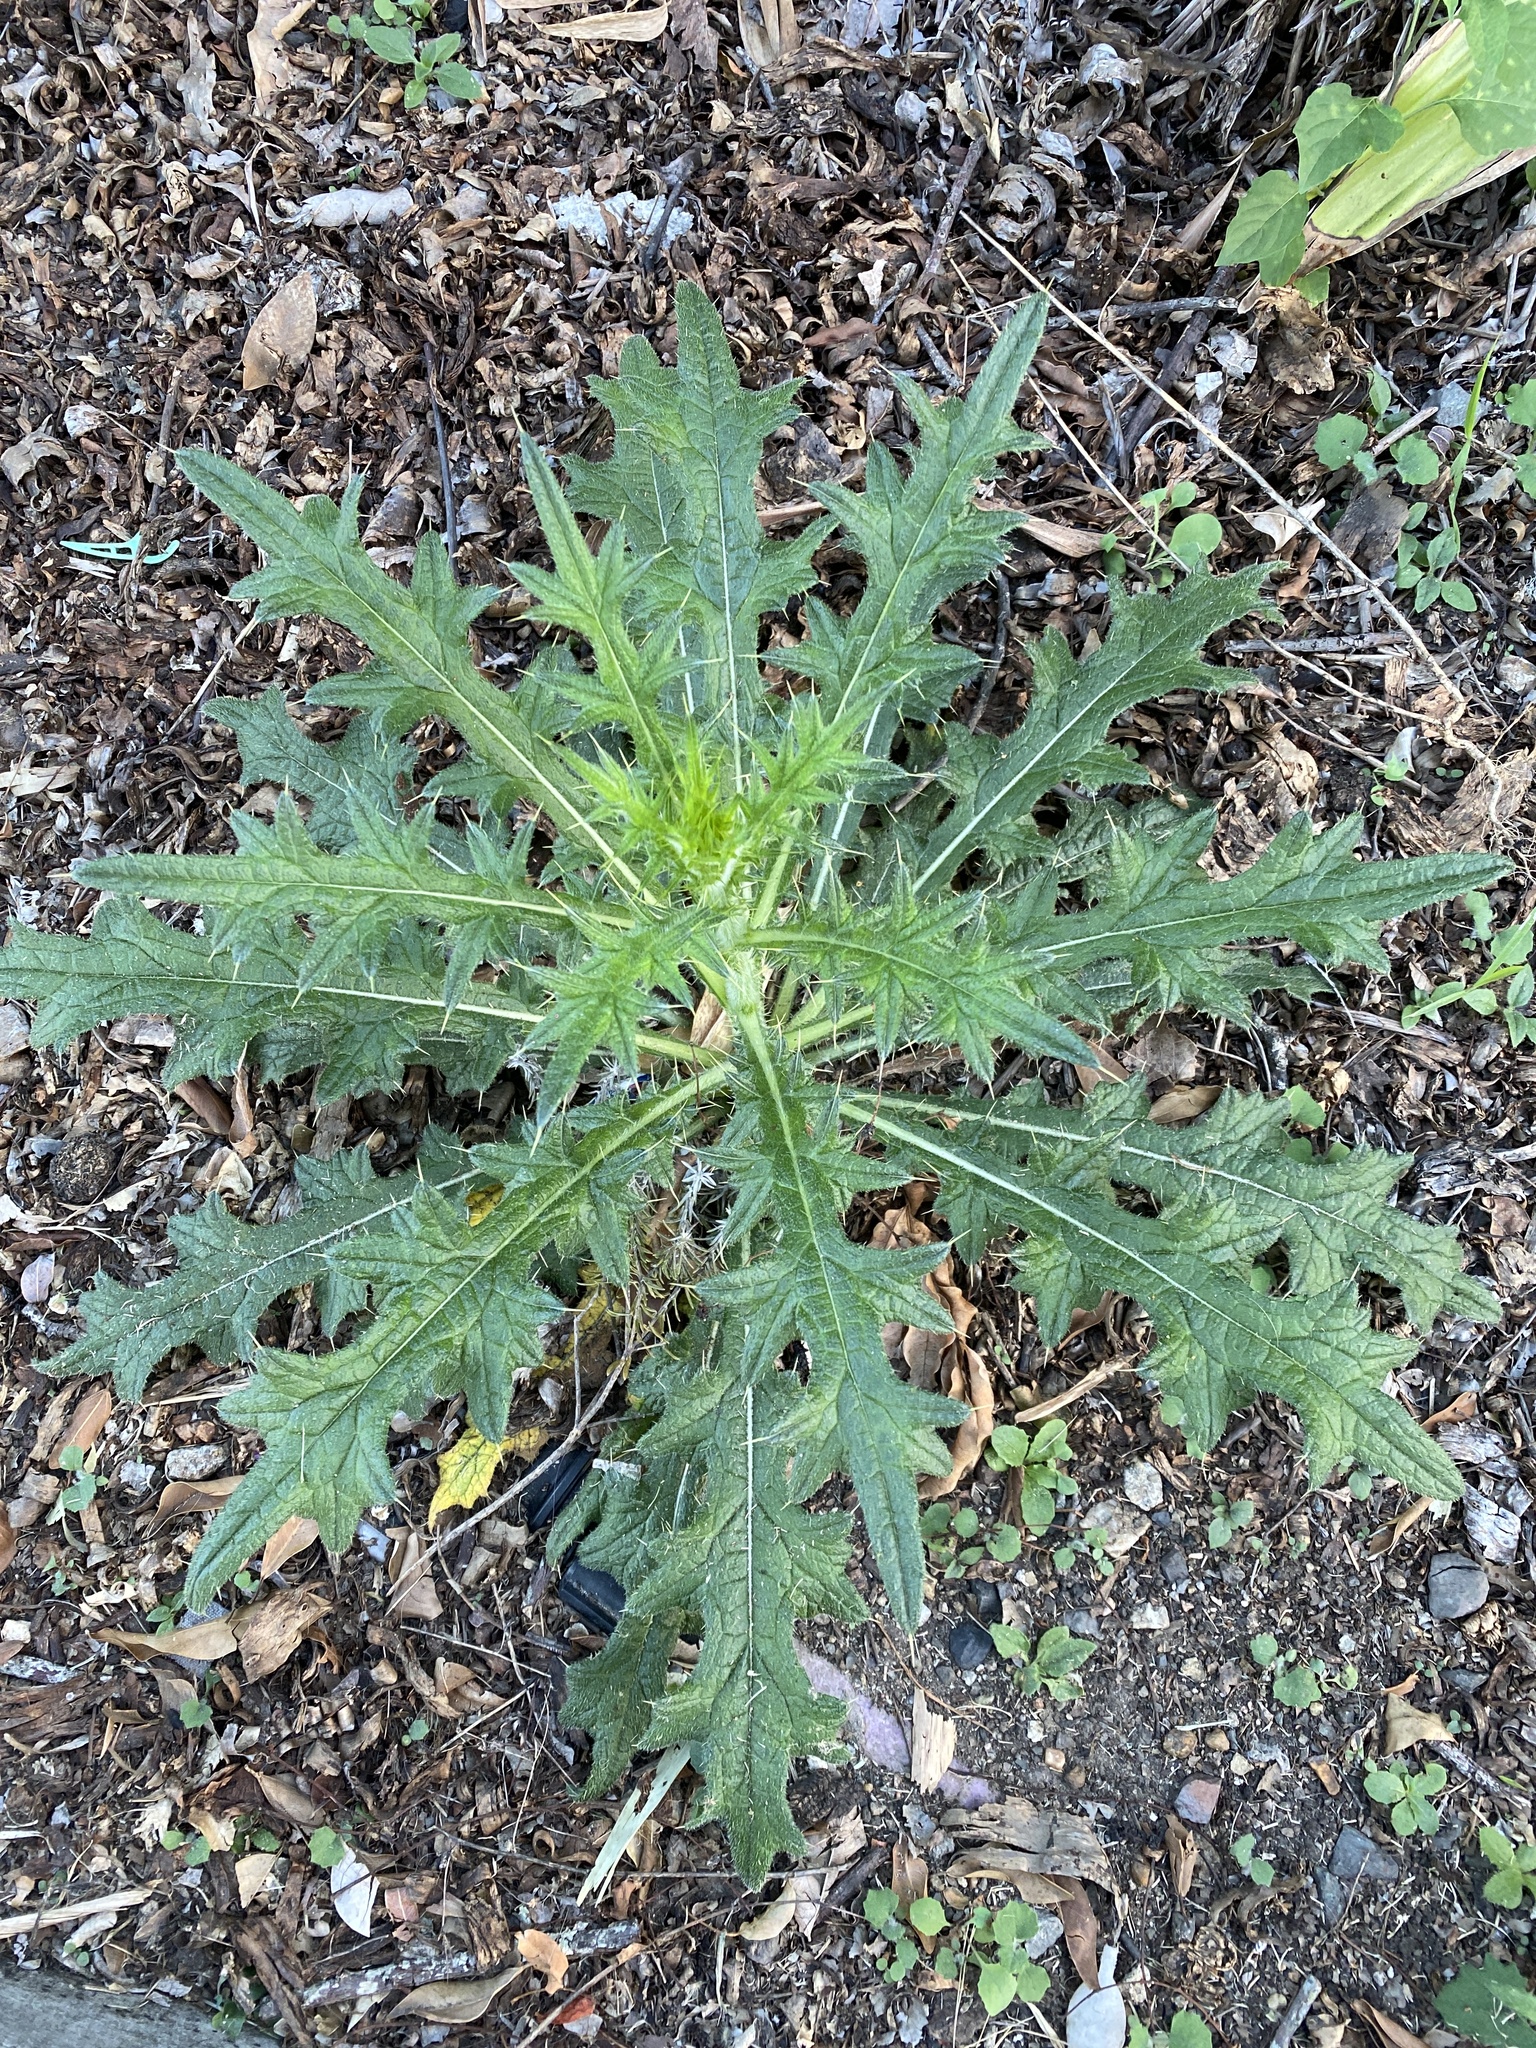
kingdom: Plantae
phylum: Tracheophyta
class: Magnoliopsida
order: Asterales
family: Asteraceae
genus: Cirsium
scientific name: Cirsium vulgare
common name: Bull thistle
